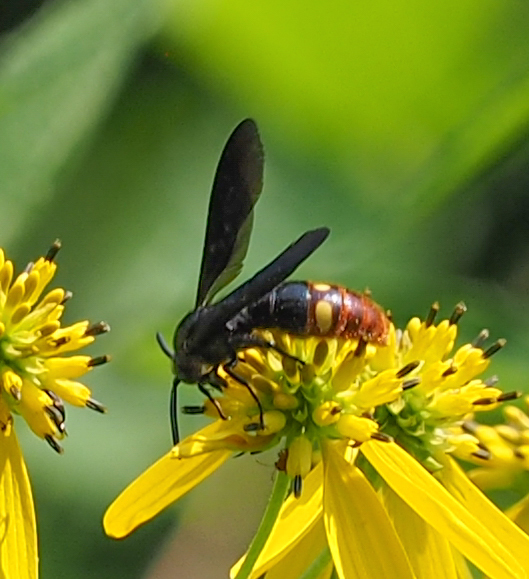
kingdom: Animalia
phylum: Arthropoda
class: Insecta
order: Hymenoptera
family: Scoliidae
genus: Scolia
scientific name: Scolia dubia
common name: Blue-winged scoliid wasp
